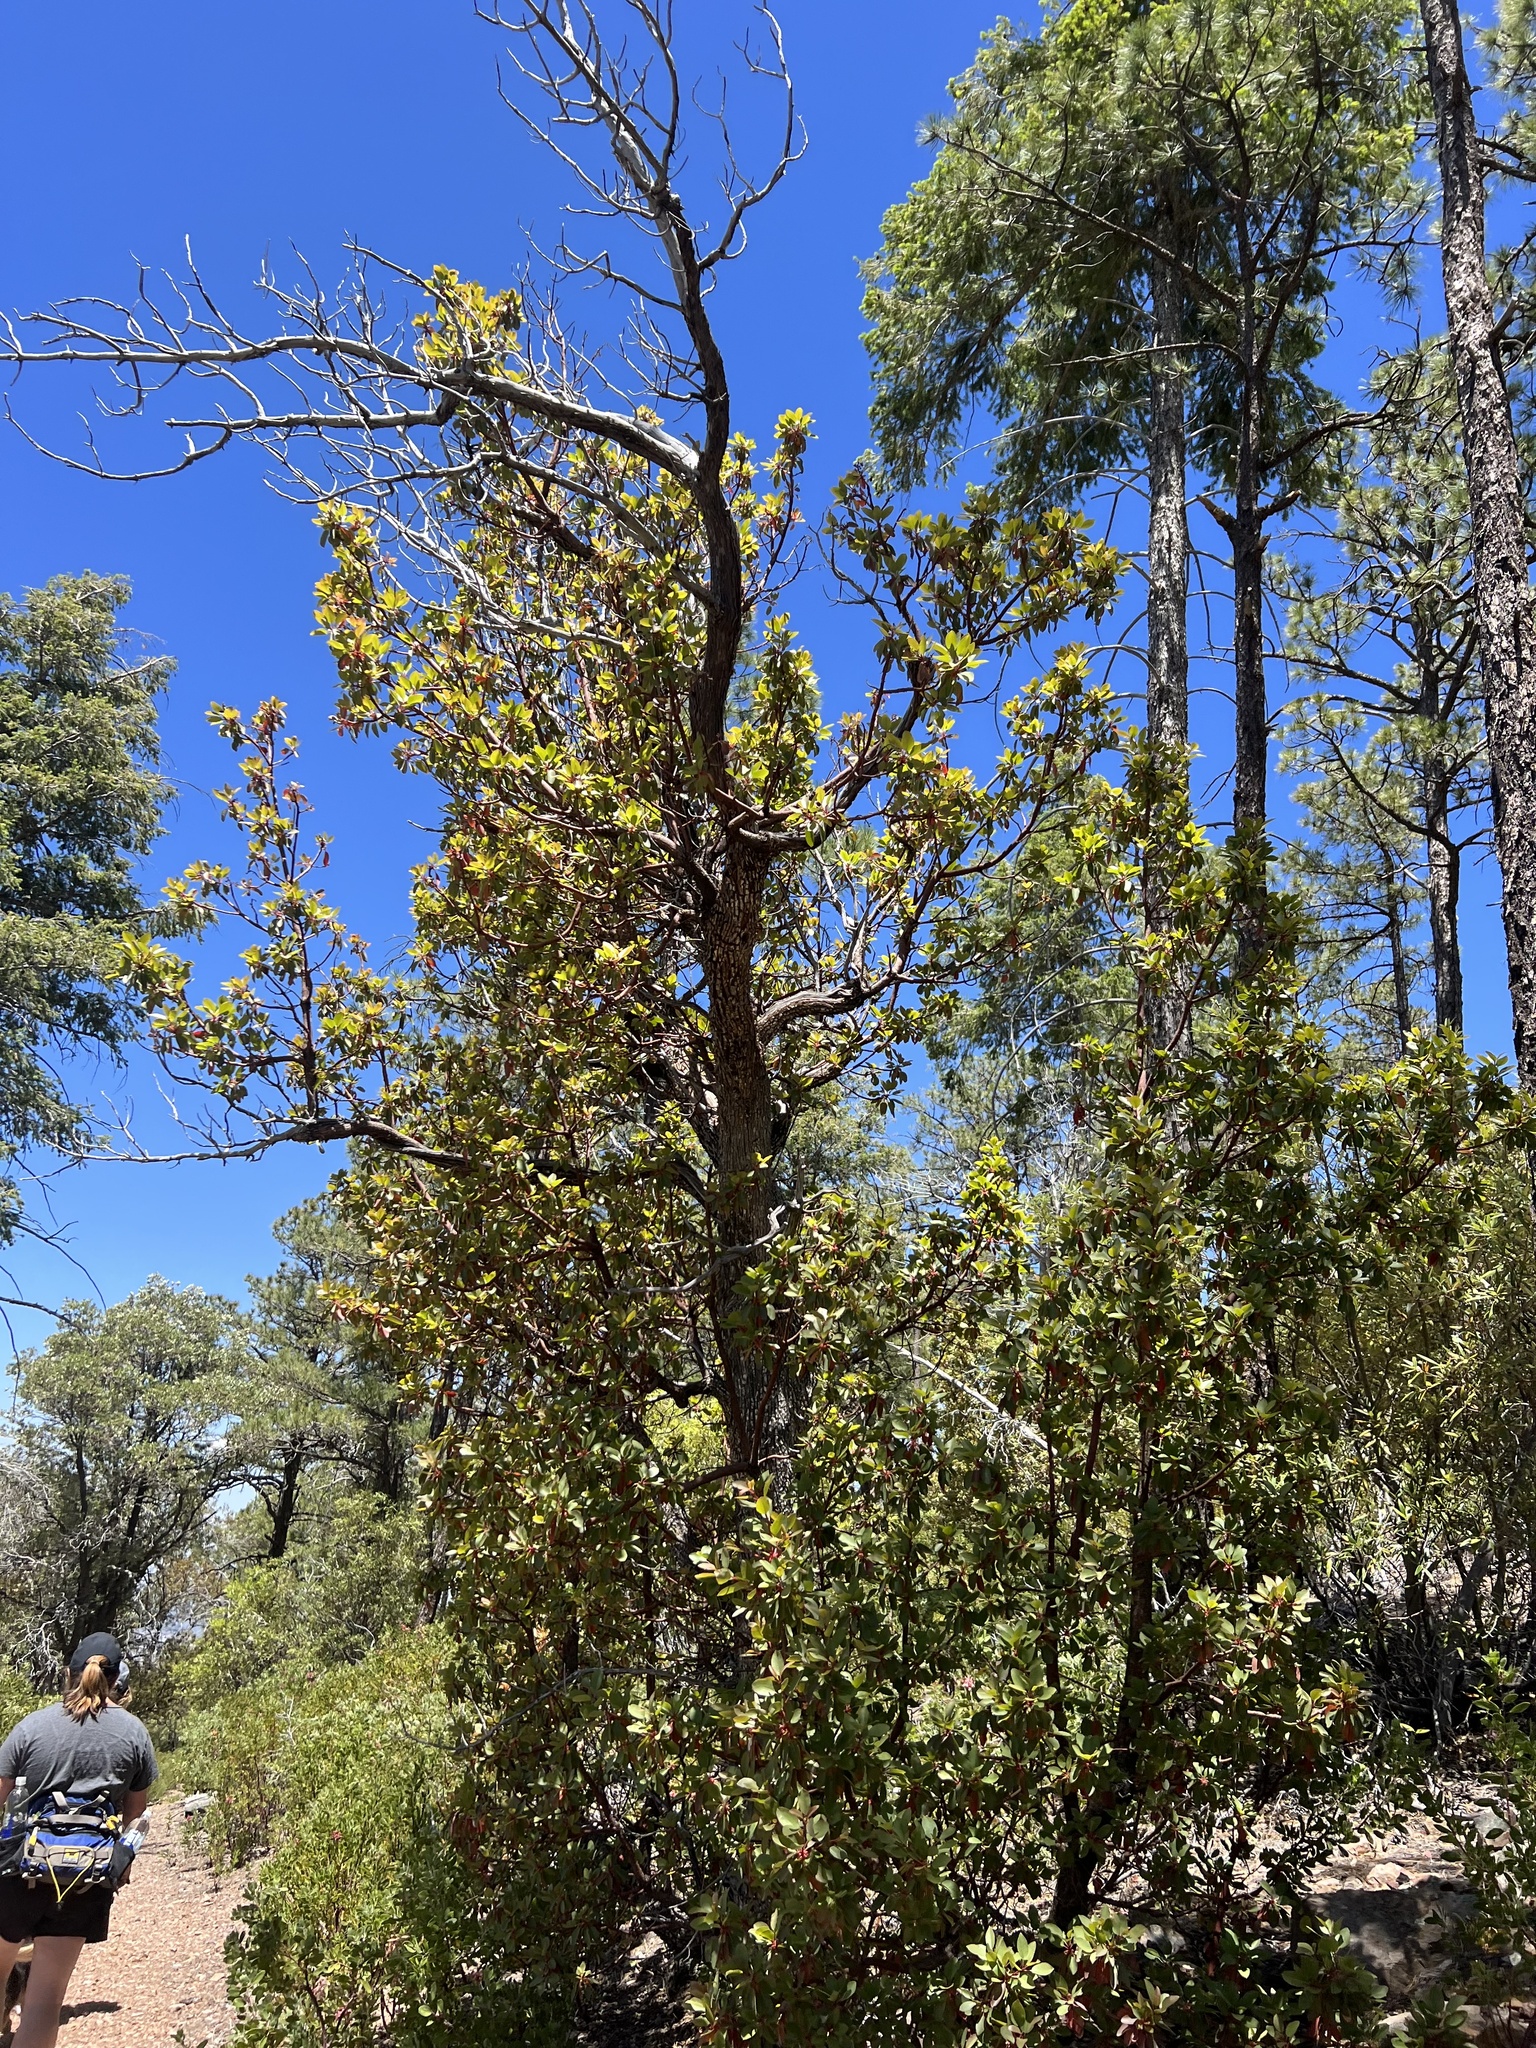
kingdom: Plantae
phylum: Tracheophyta
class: Magnoliopsida
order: Ericales
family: Ericaceae
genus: Arbutus
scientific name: Arbutus arizonica
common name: Arizona madrone
